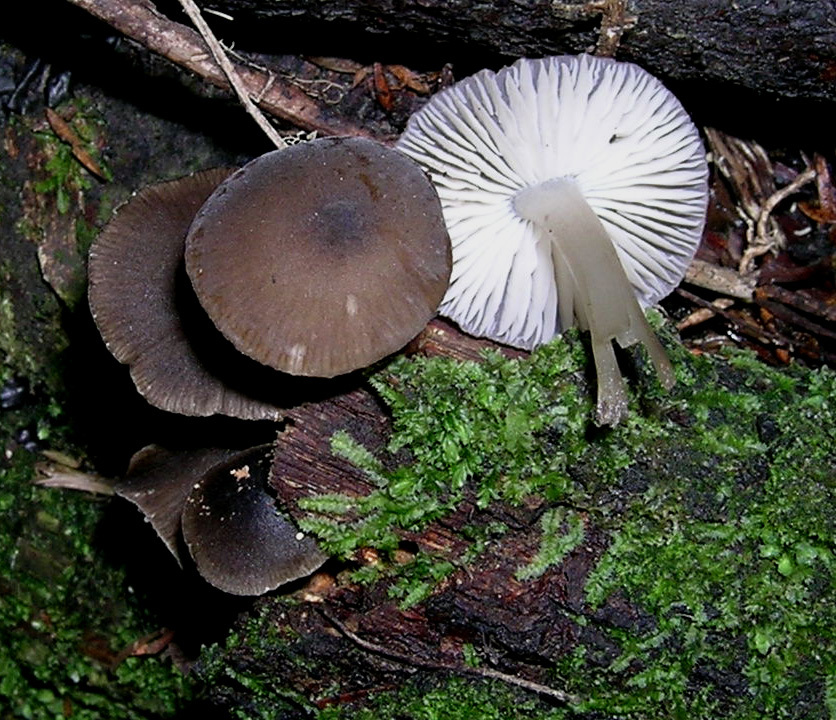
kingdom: Fungi
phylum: Basidiomycota
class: Agaricomycetes
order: Agaricales
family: Porotheleaceae
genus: Pseudohydropus
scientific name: Pseudohydropus commenticius
